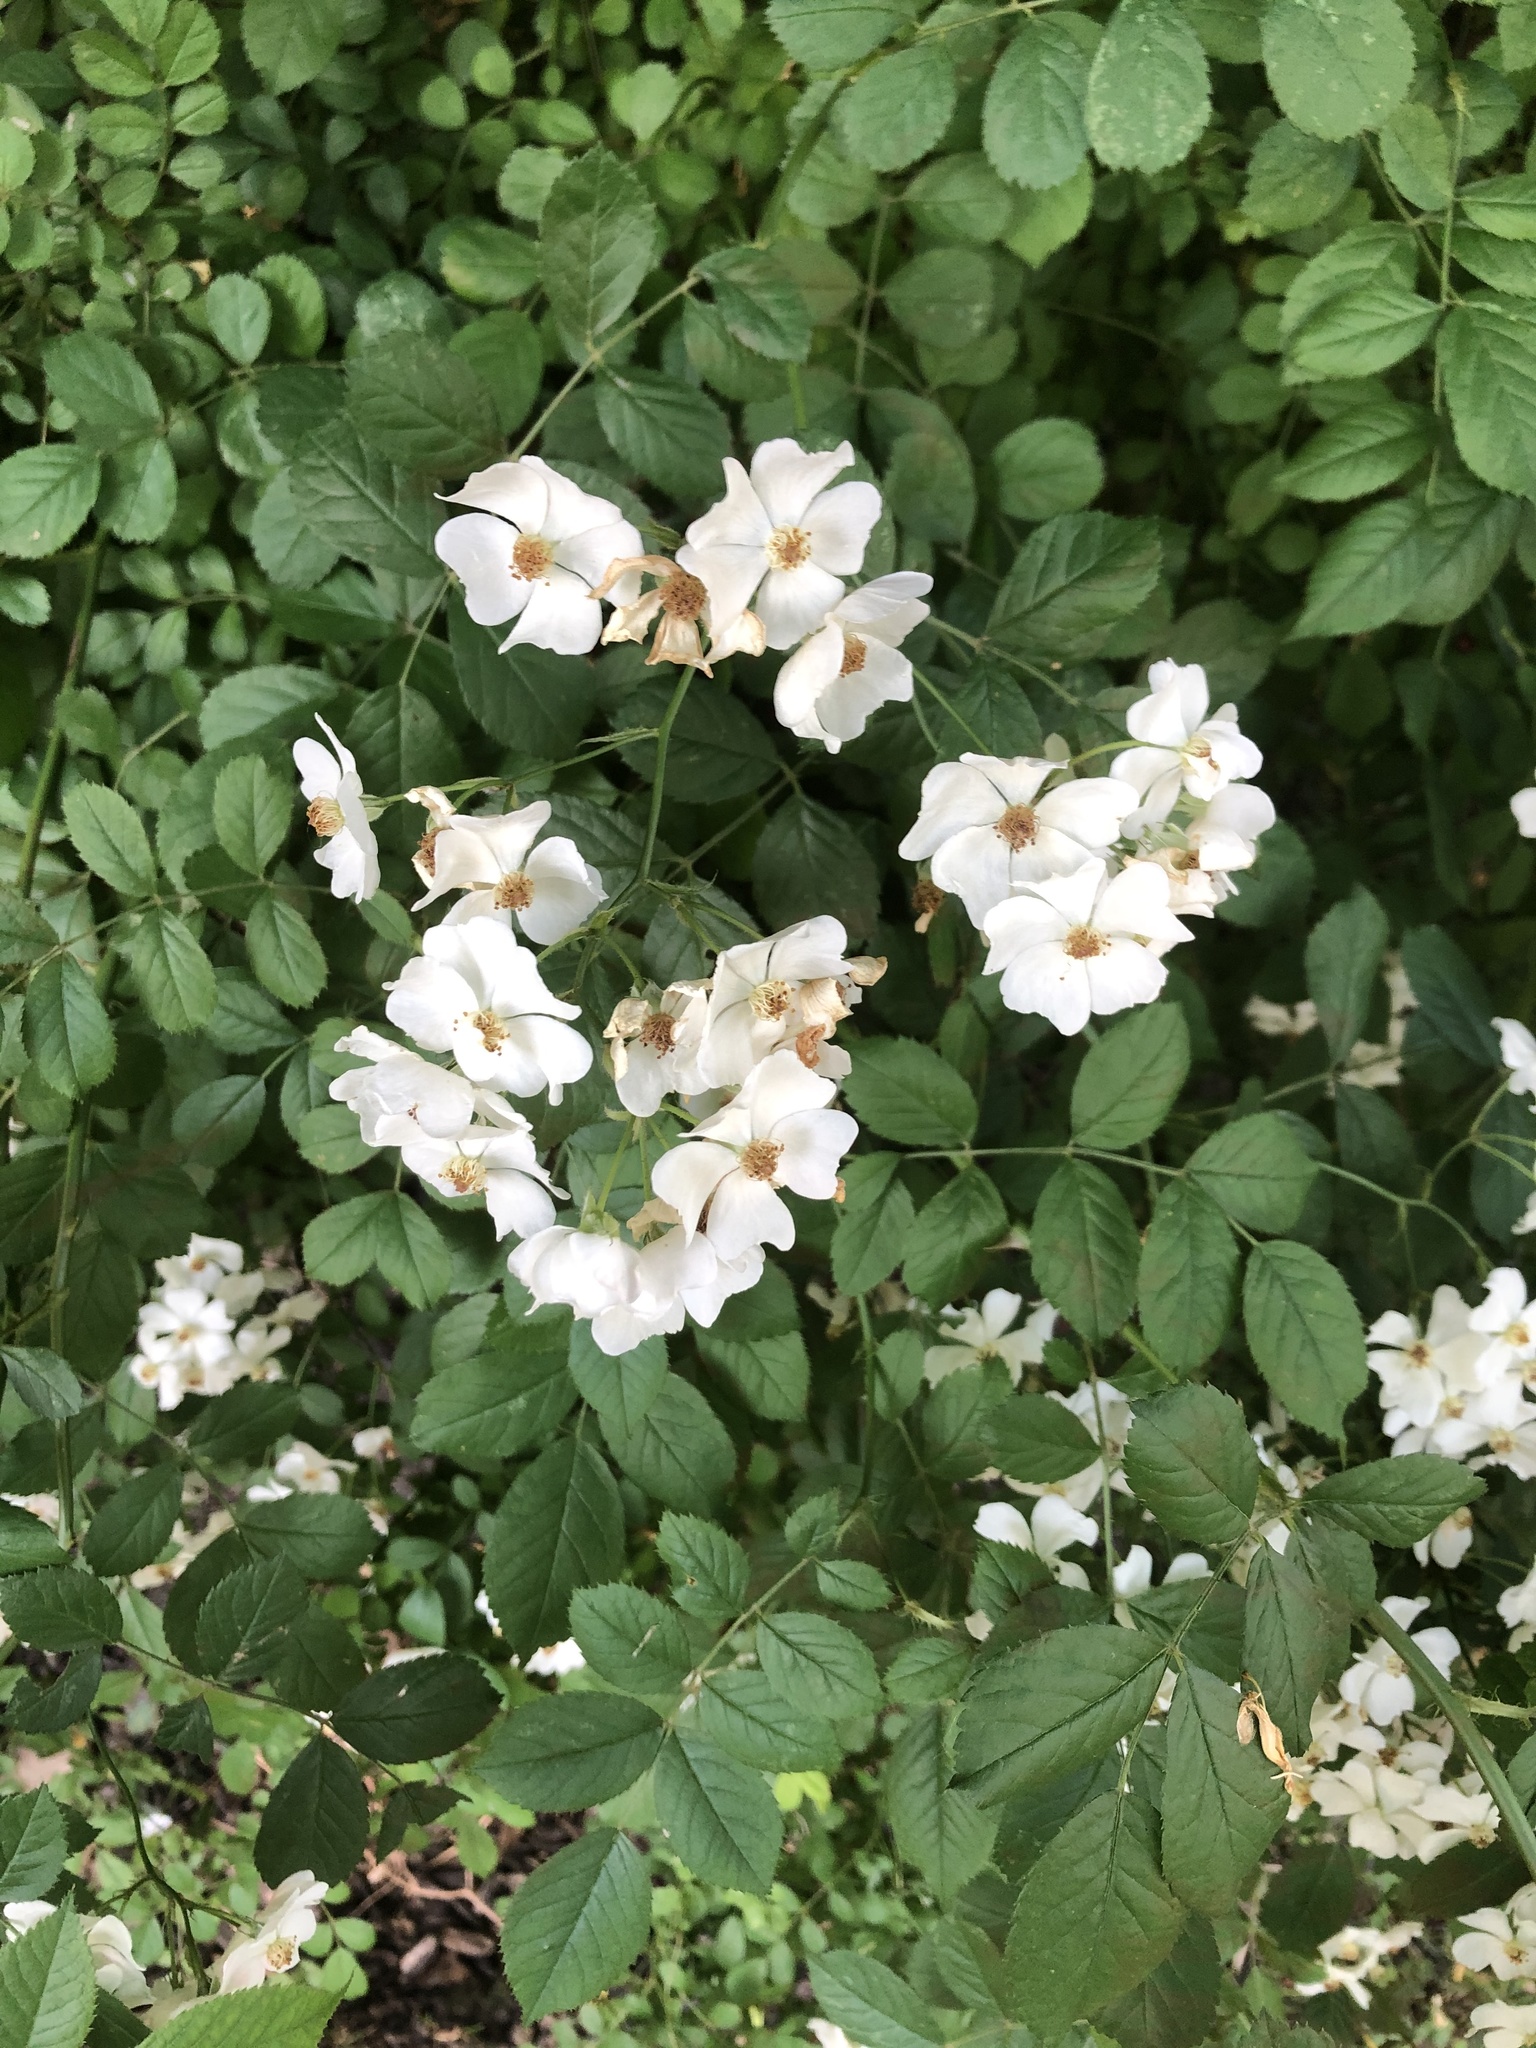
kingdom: Plantae
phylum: Tracheophyta
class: Magnoliopsida
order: Rosales
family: Rosaceae
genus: Rosa
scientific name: Rosa multiflora
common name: Multiflora rose
